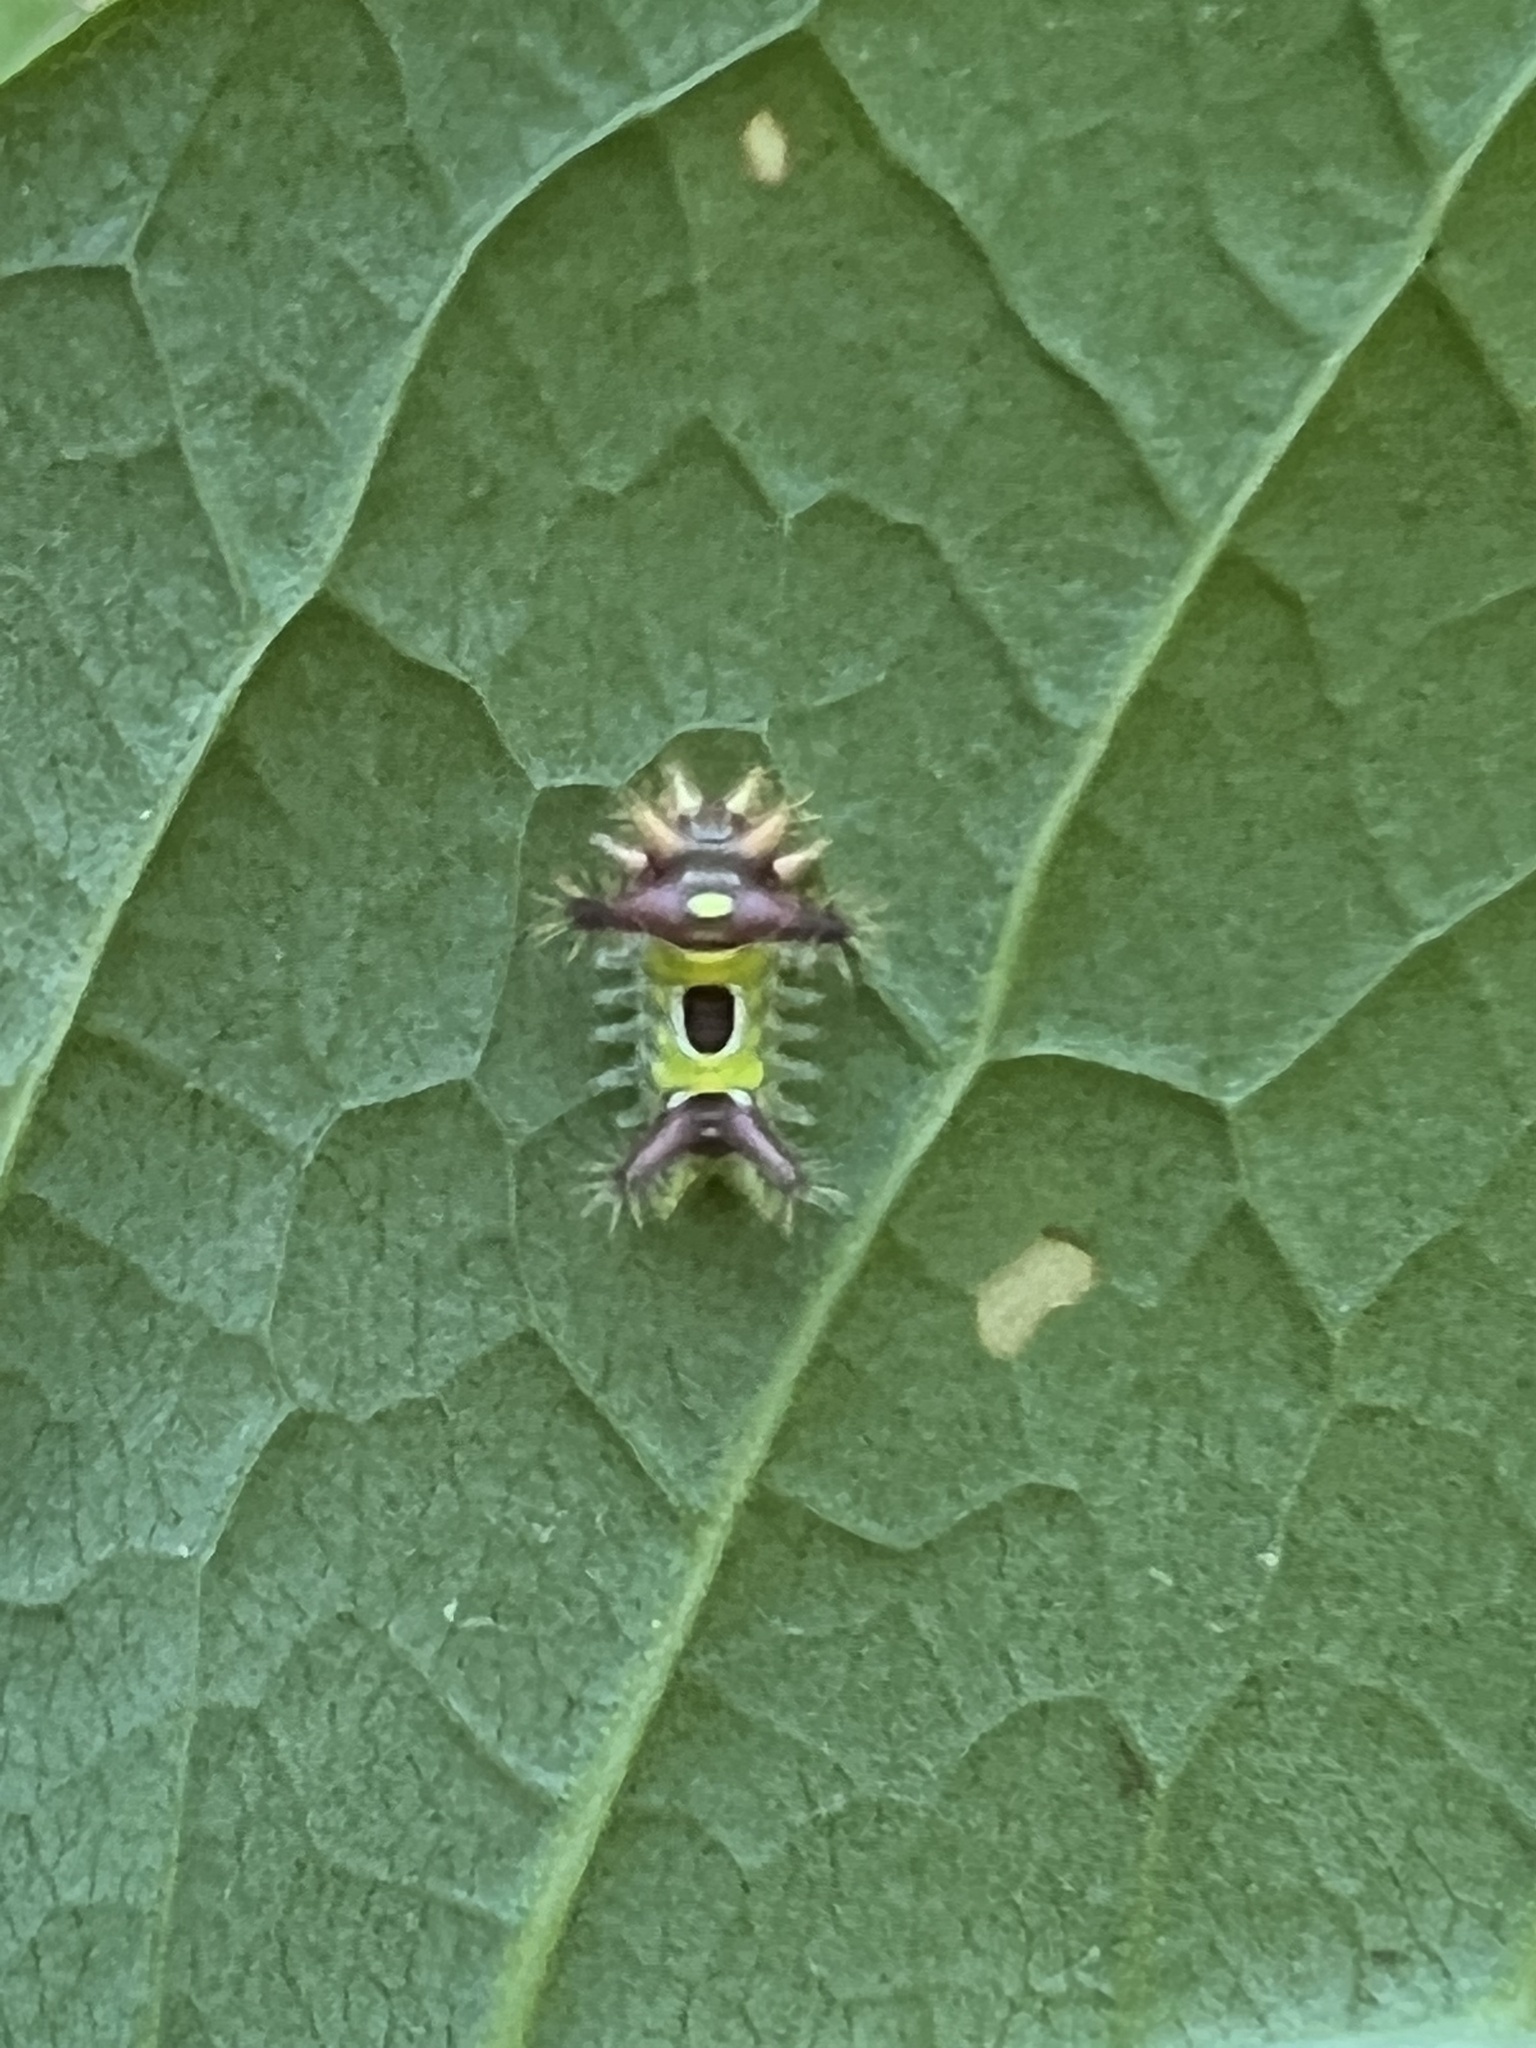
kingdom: Animalia
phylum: Arthropoda
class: Insecta
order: Lepidoptera
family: Limacodidae
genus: Acharia
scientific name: Acharia stimulea
